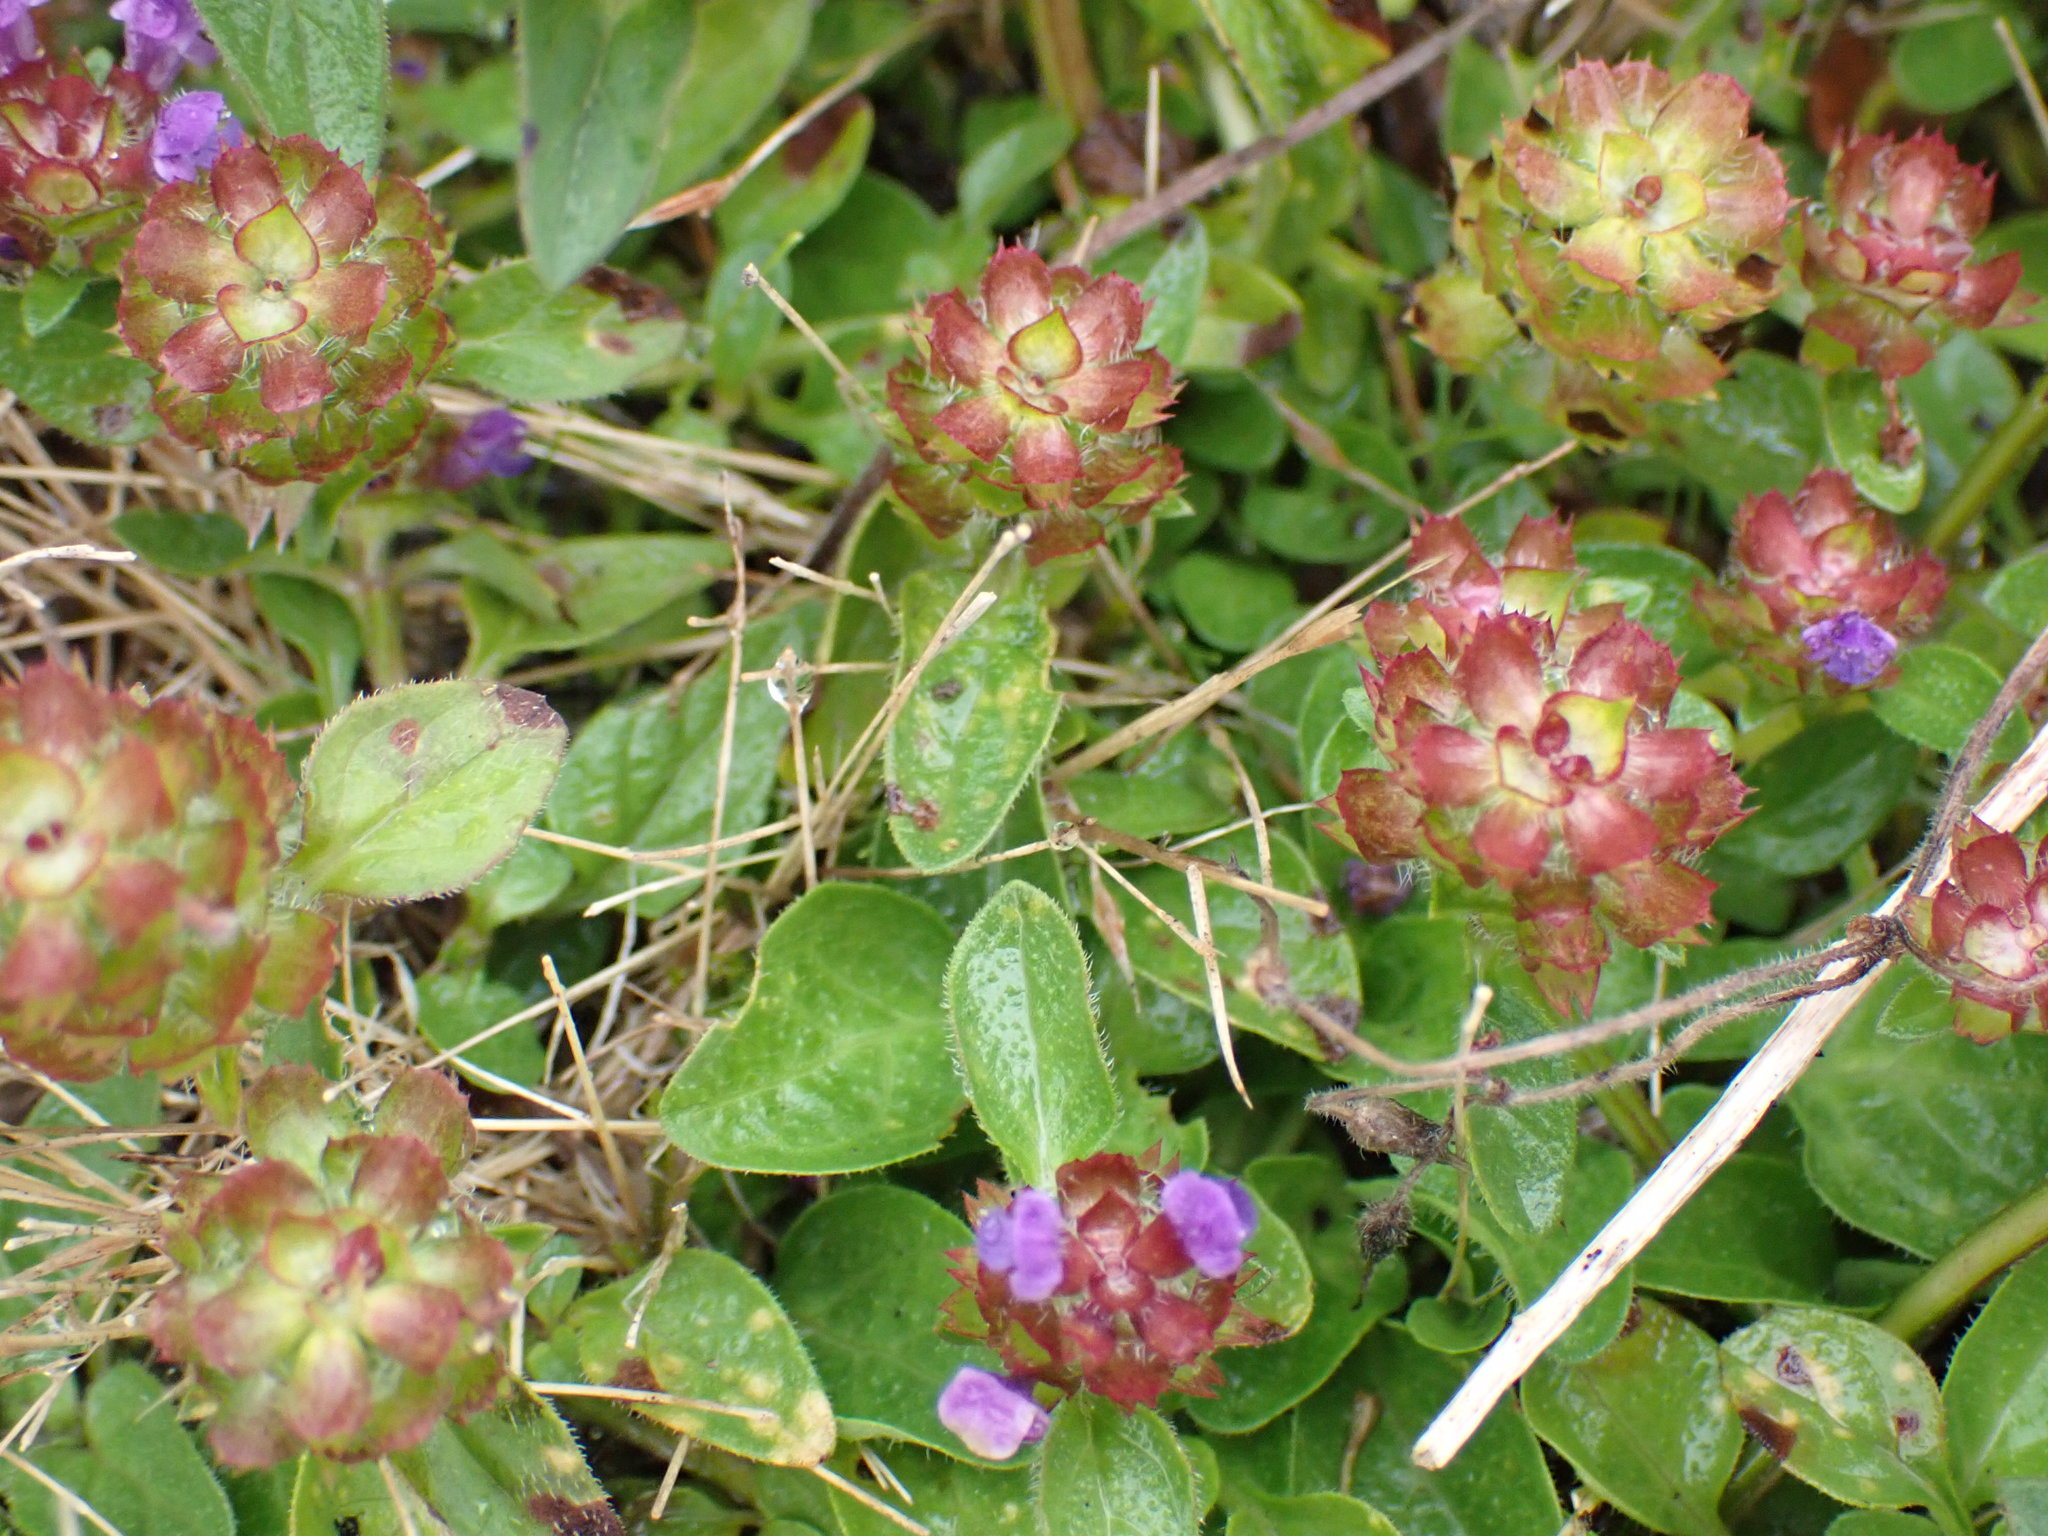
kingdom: Plantae
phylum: Tracheophyta
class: Magnoliopsida
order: Lamiales
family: Lamiaceae
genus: Prunella
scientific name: Prunella vulgaris
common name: Heal-all
